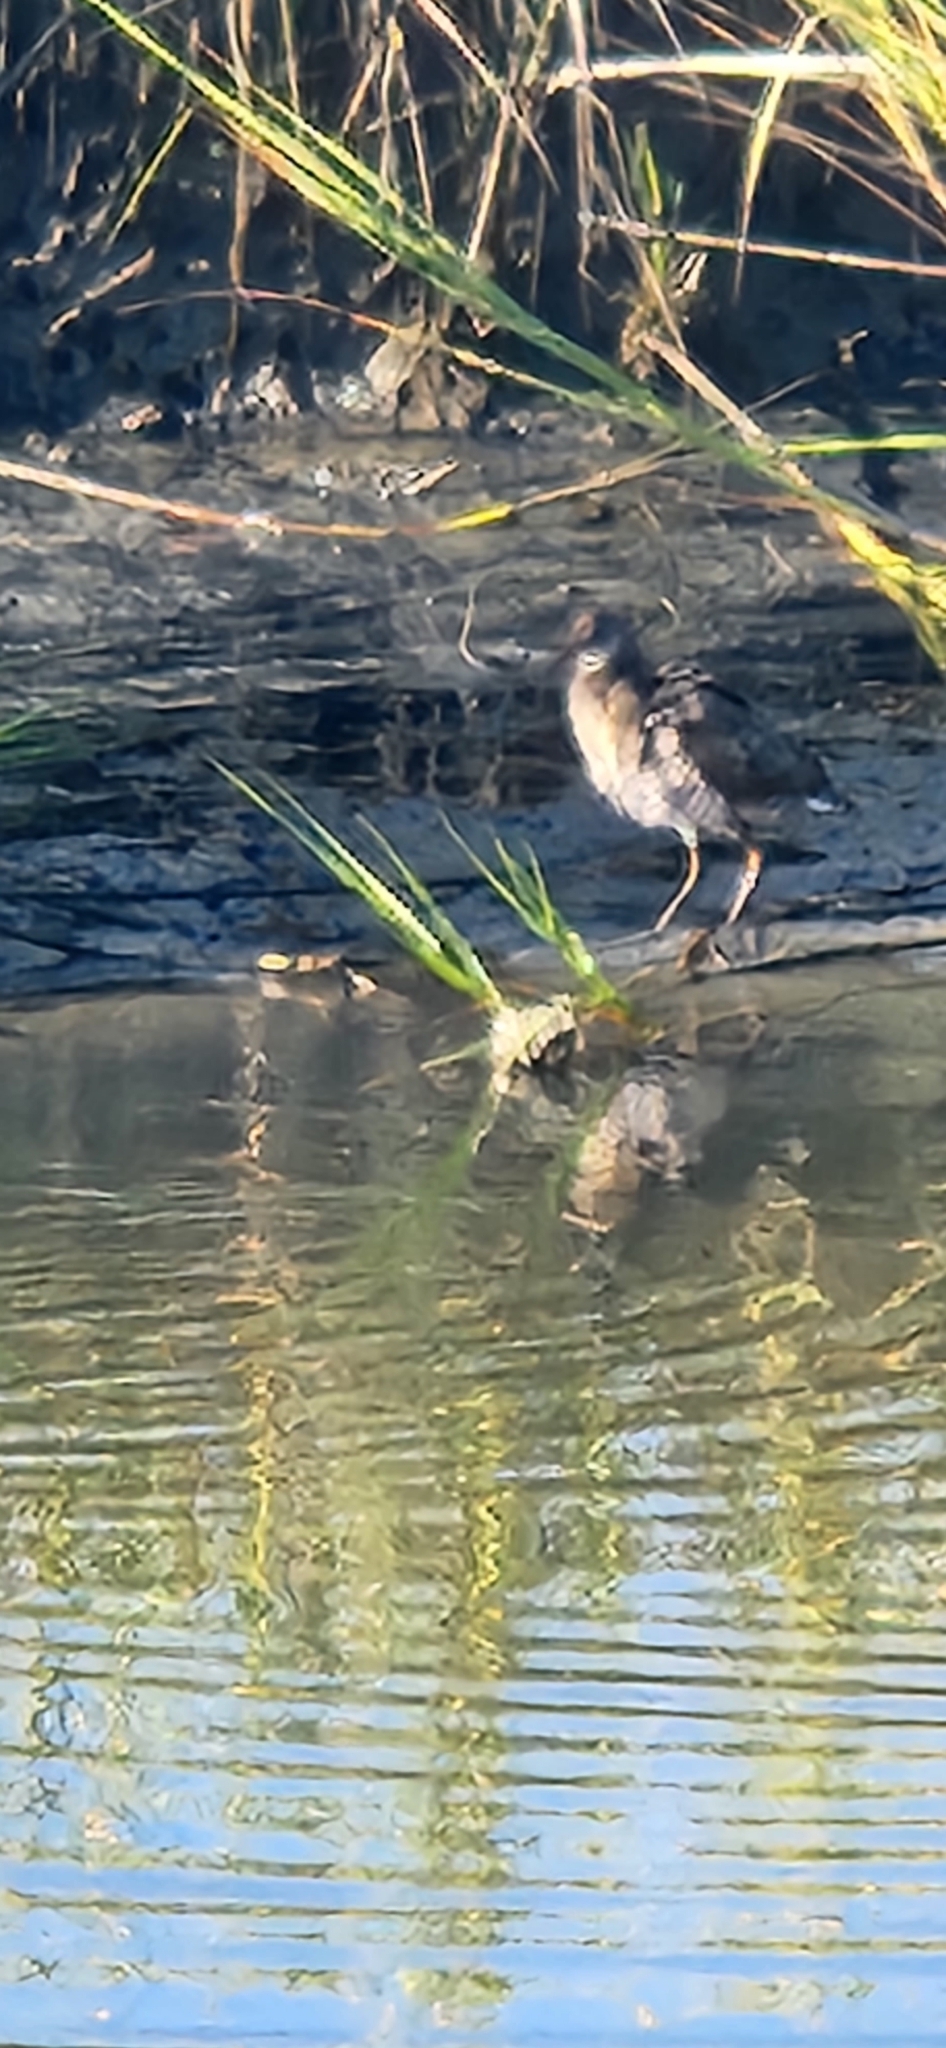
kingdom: Animalia
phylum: Chordata
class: Aves
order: Gruiformes
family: Rallidae
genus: Rallus
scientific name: Rallus crepitans
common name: Clapper rail
